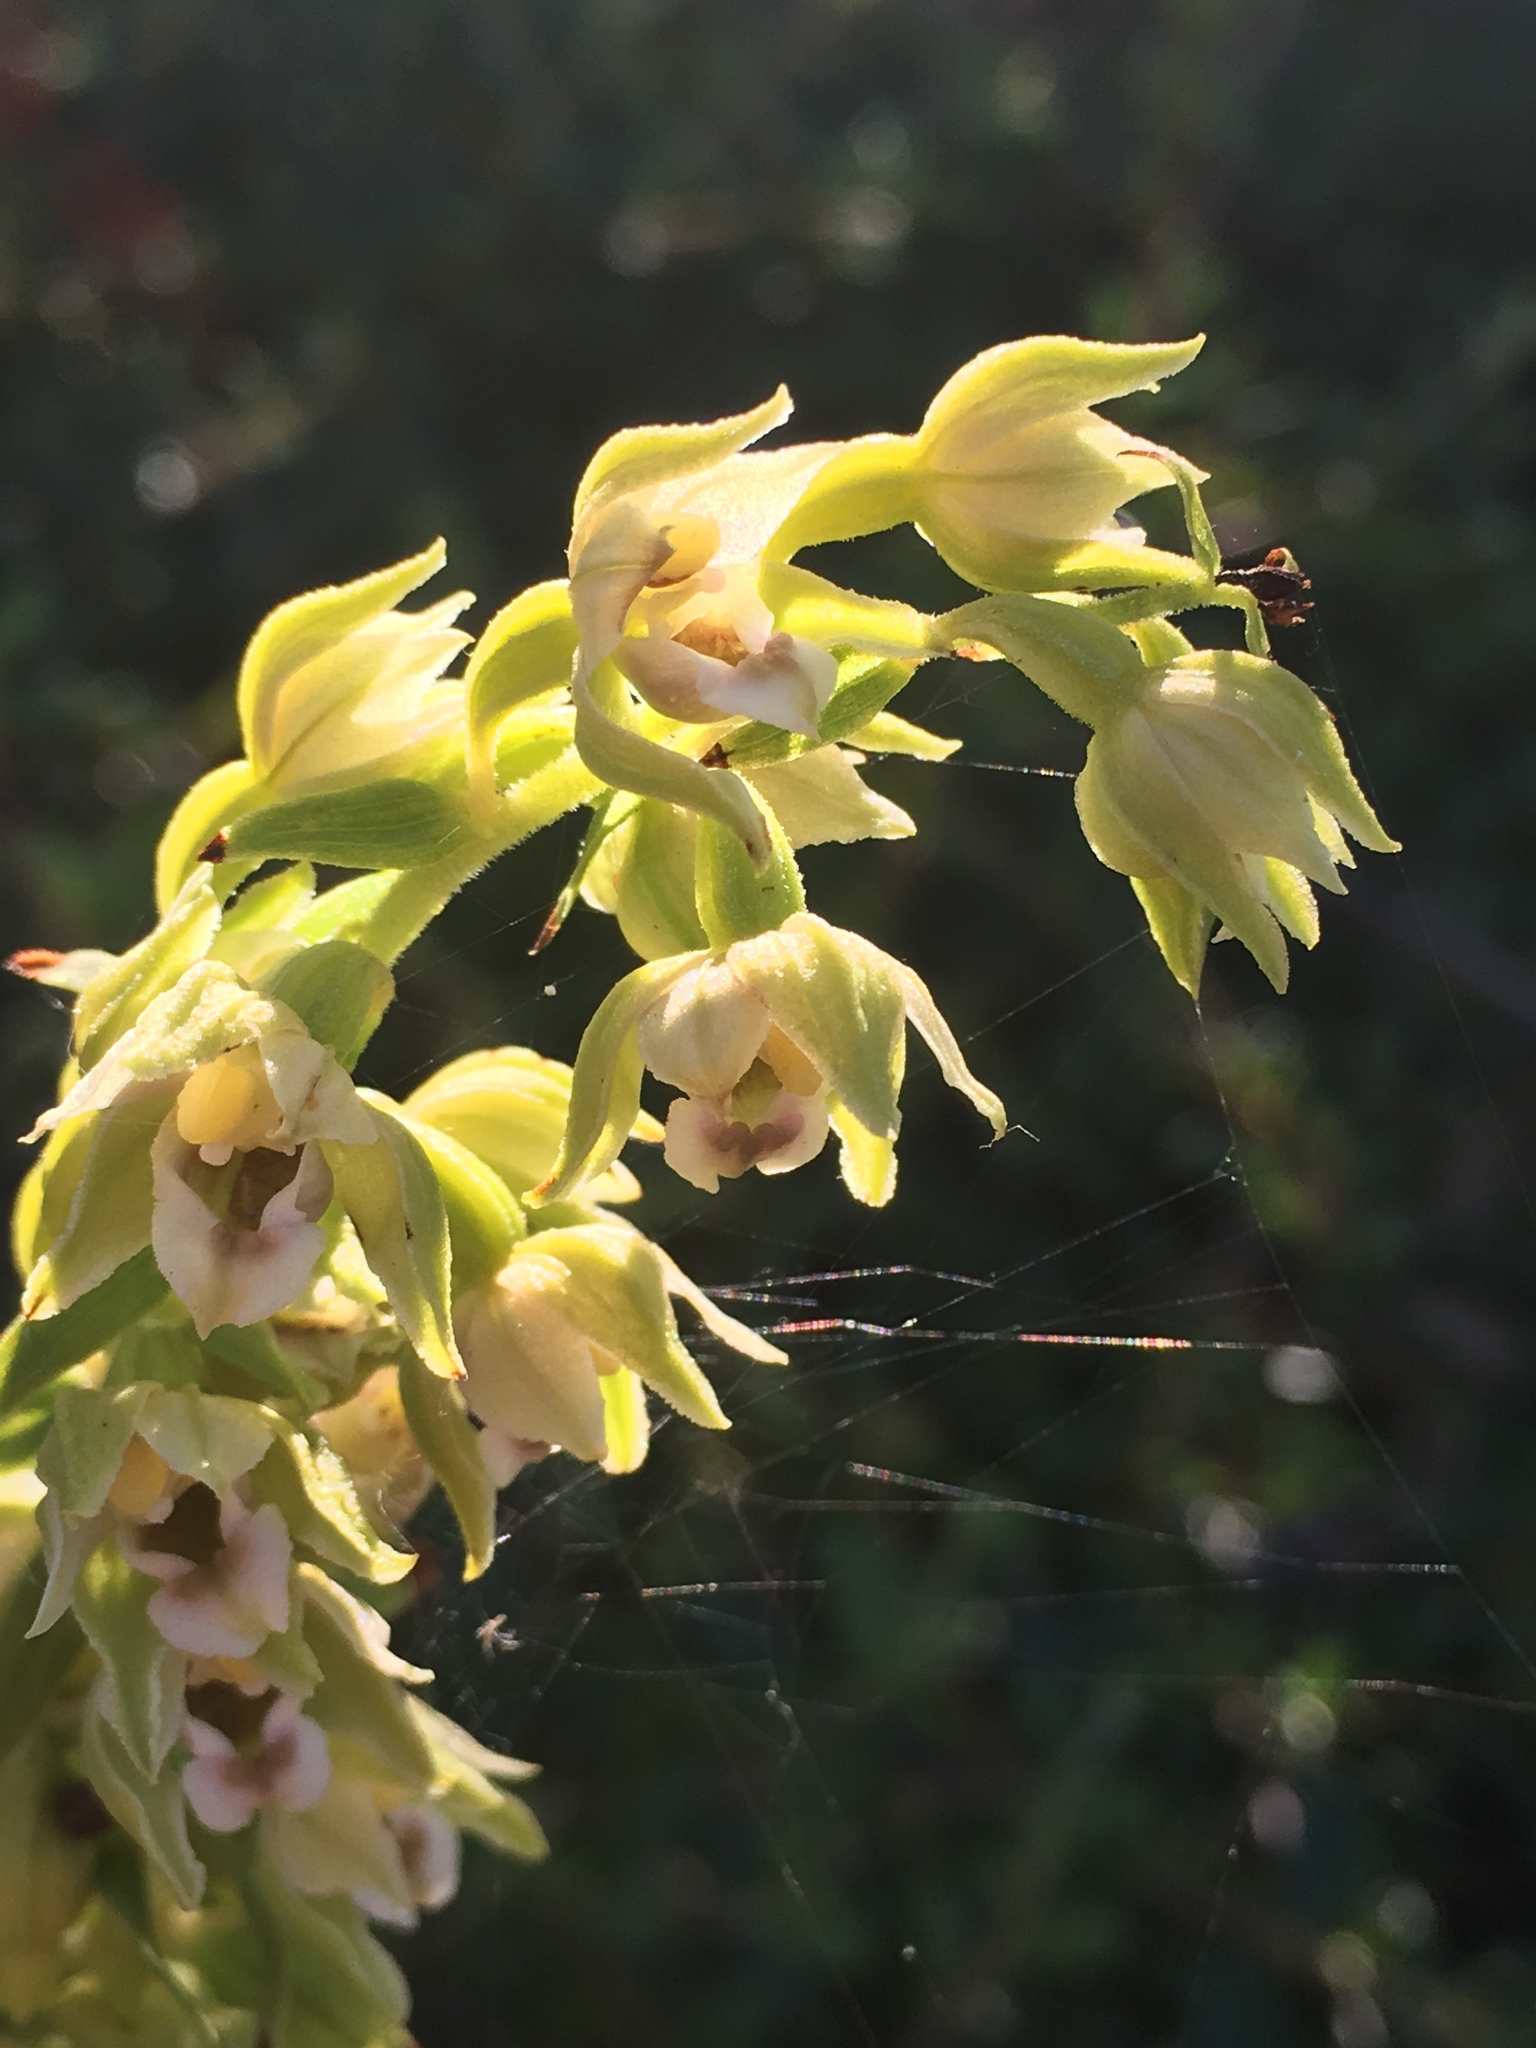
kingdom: Plantae
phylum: Tracheophyta
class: Liliopsida
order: Asparagales
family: Orchidaceae
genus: Epipactis
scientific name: Epipactis helleborine
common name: Broad-leaved helleborine
